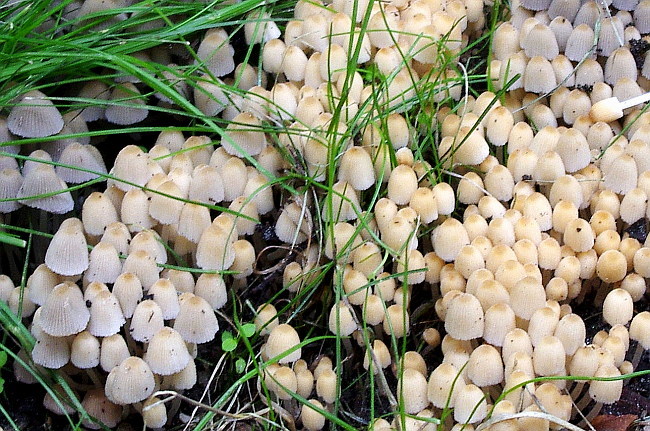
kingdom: Fungi
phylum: Basidiomycota
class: Agaricomycetes
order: Agaricales
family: Psathyrellaceae
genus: Coprinellus
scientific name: Coprinellus disseminatus
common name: Fairies' bonnets
